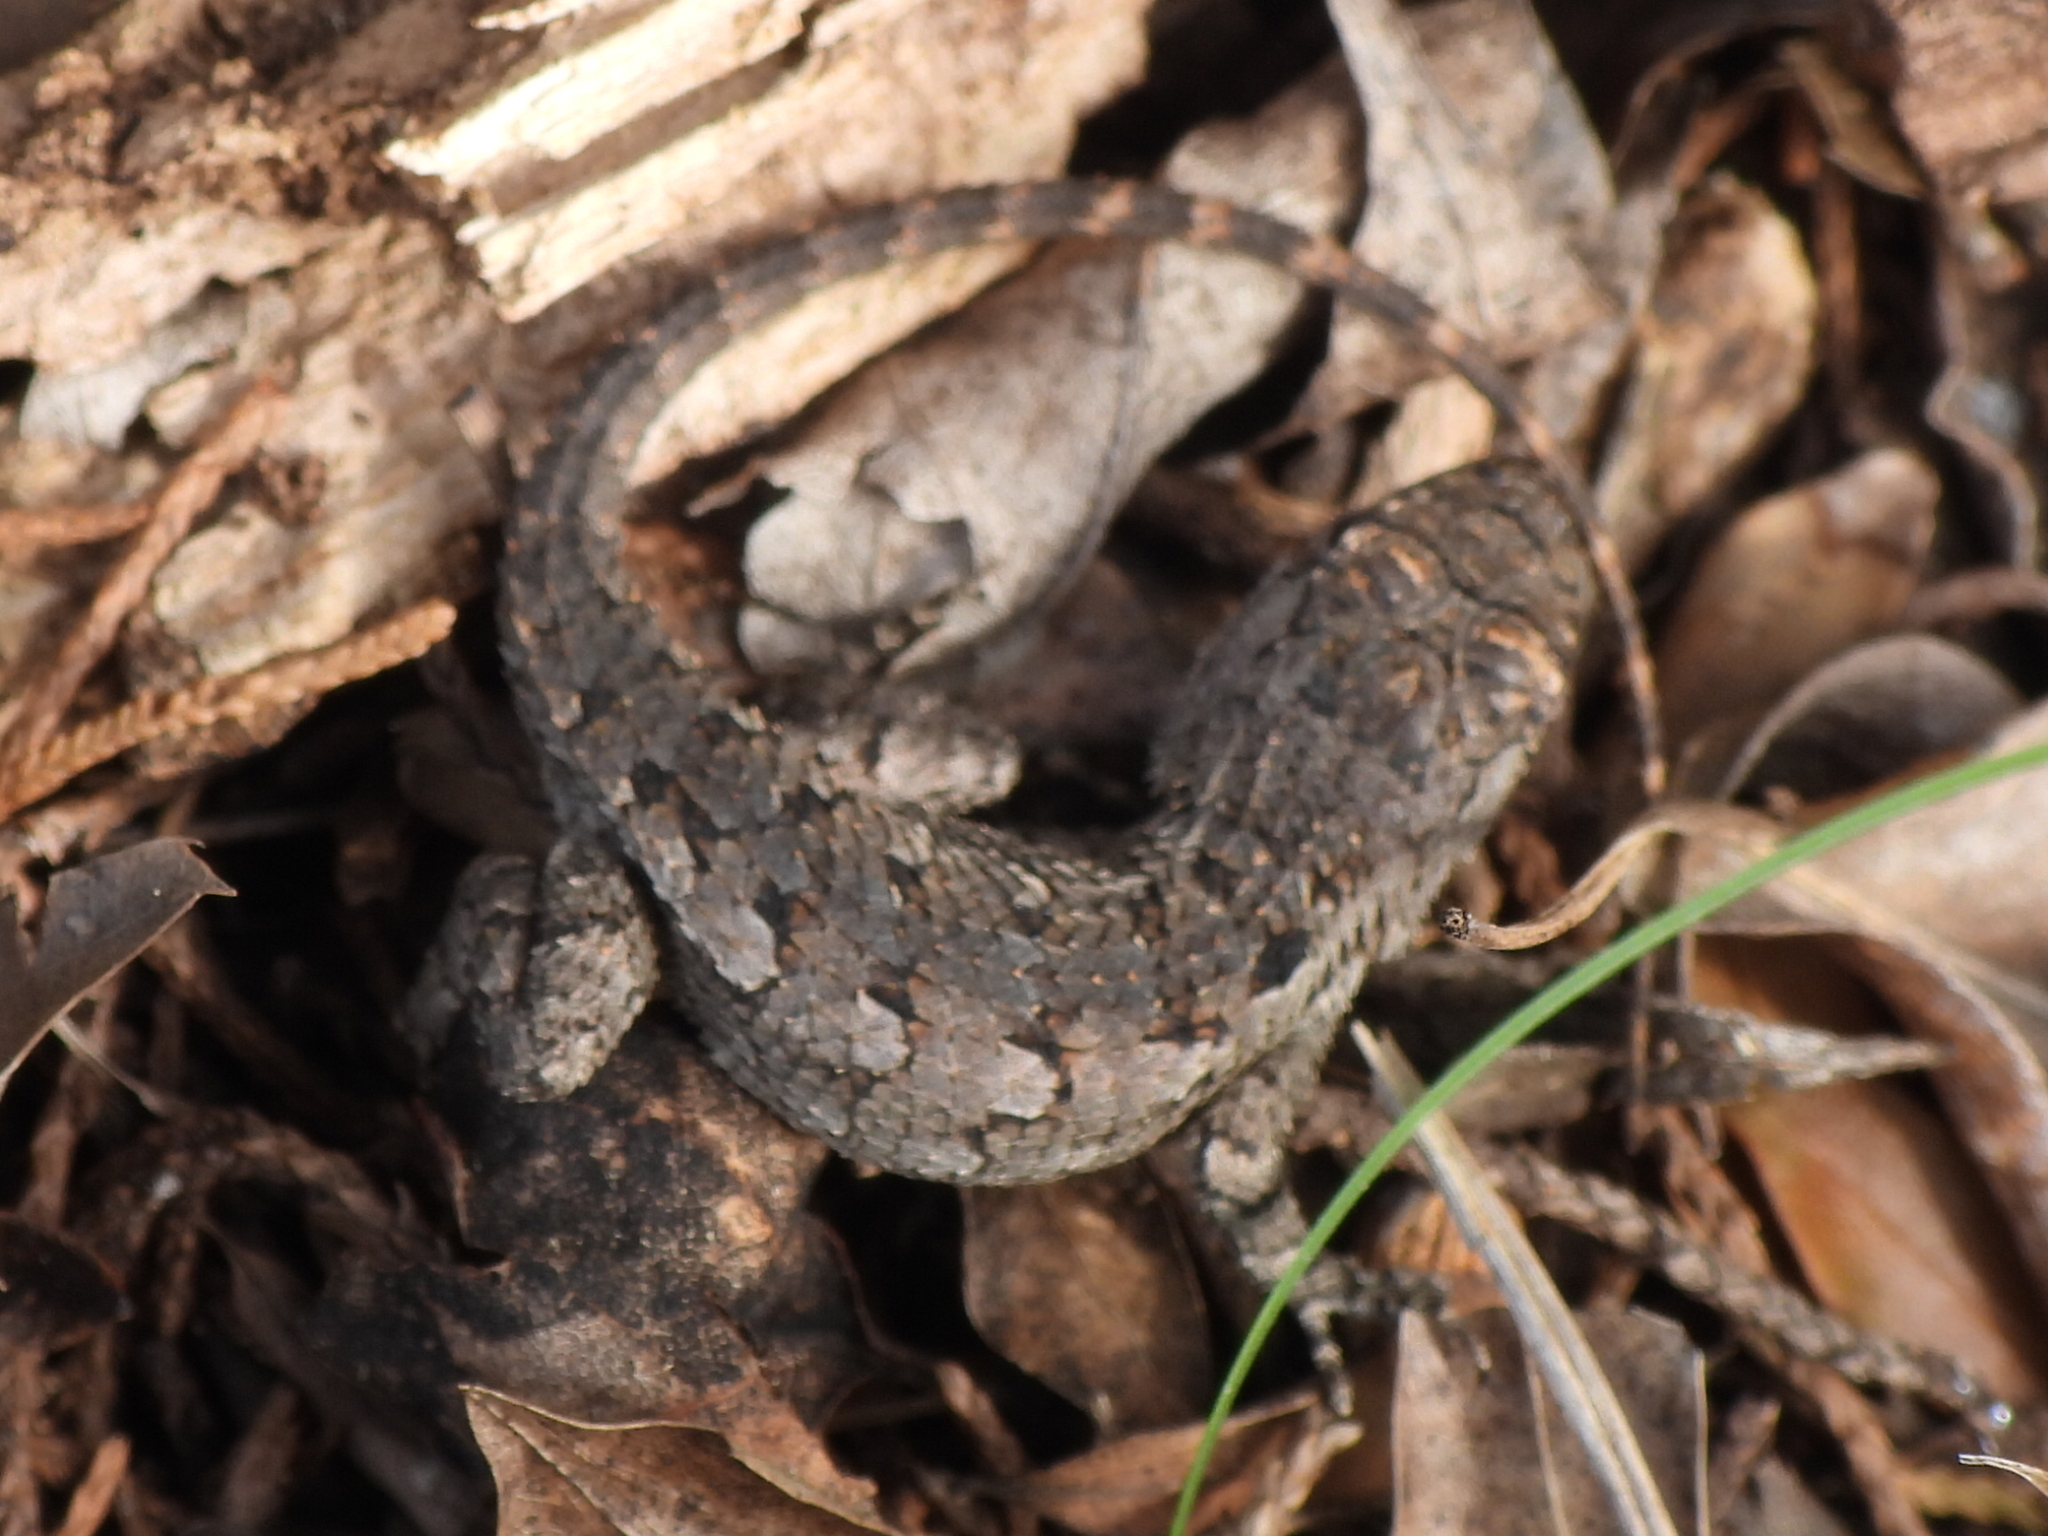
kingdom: Animalia
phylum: Chordata
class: Squamata
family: Phrynosomatidae
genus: Sceloporus
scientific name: Sceloporus olivaceus
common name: Texas spiny lizard
